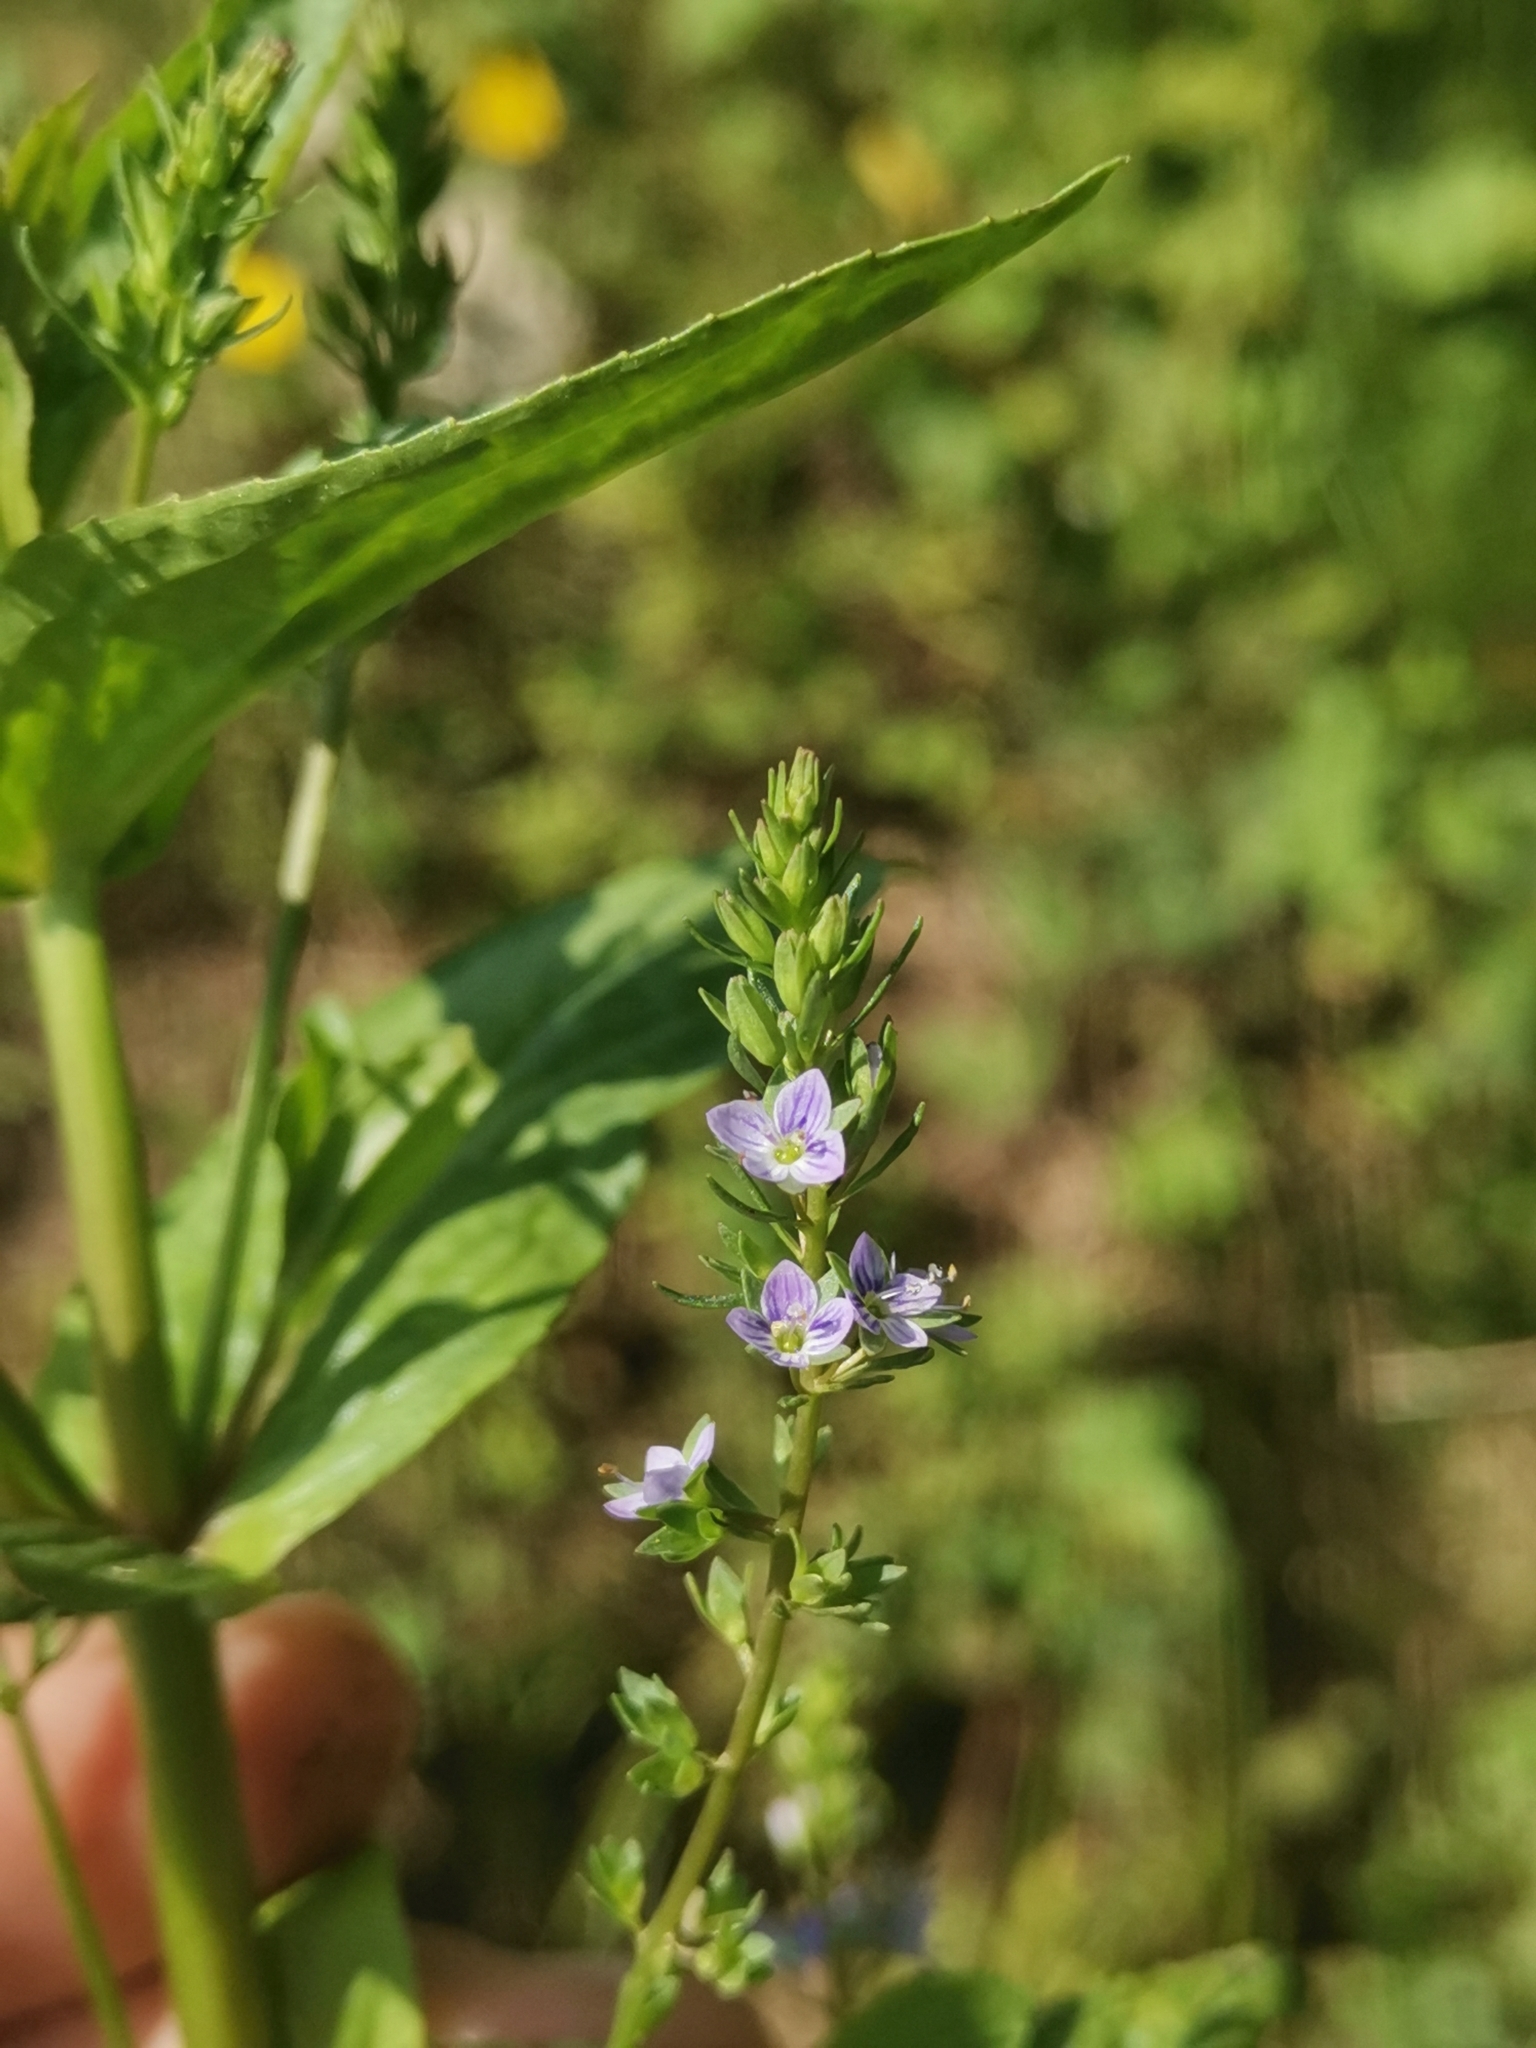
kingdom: Plantae
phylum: Tracheophyta
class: Magnoliopsida
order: Lamiales
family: Plantaginaceae
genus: Veronica
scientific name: Veronica anagallis-aquatica
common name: Water speedwell
